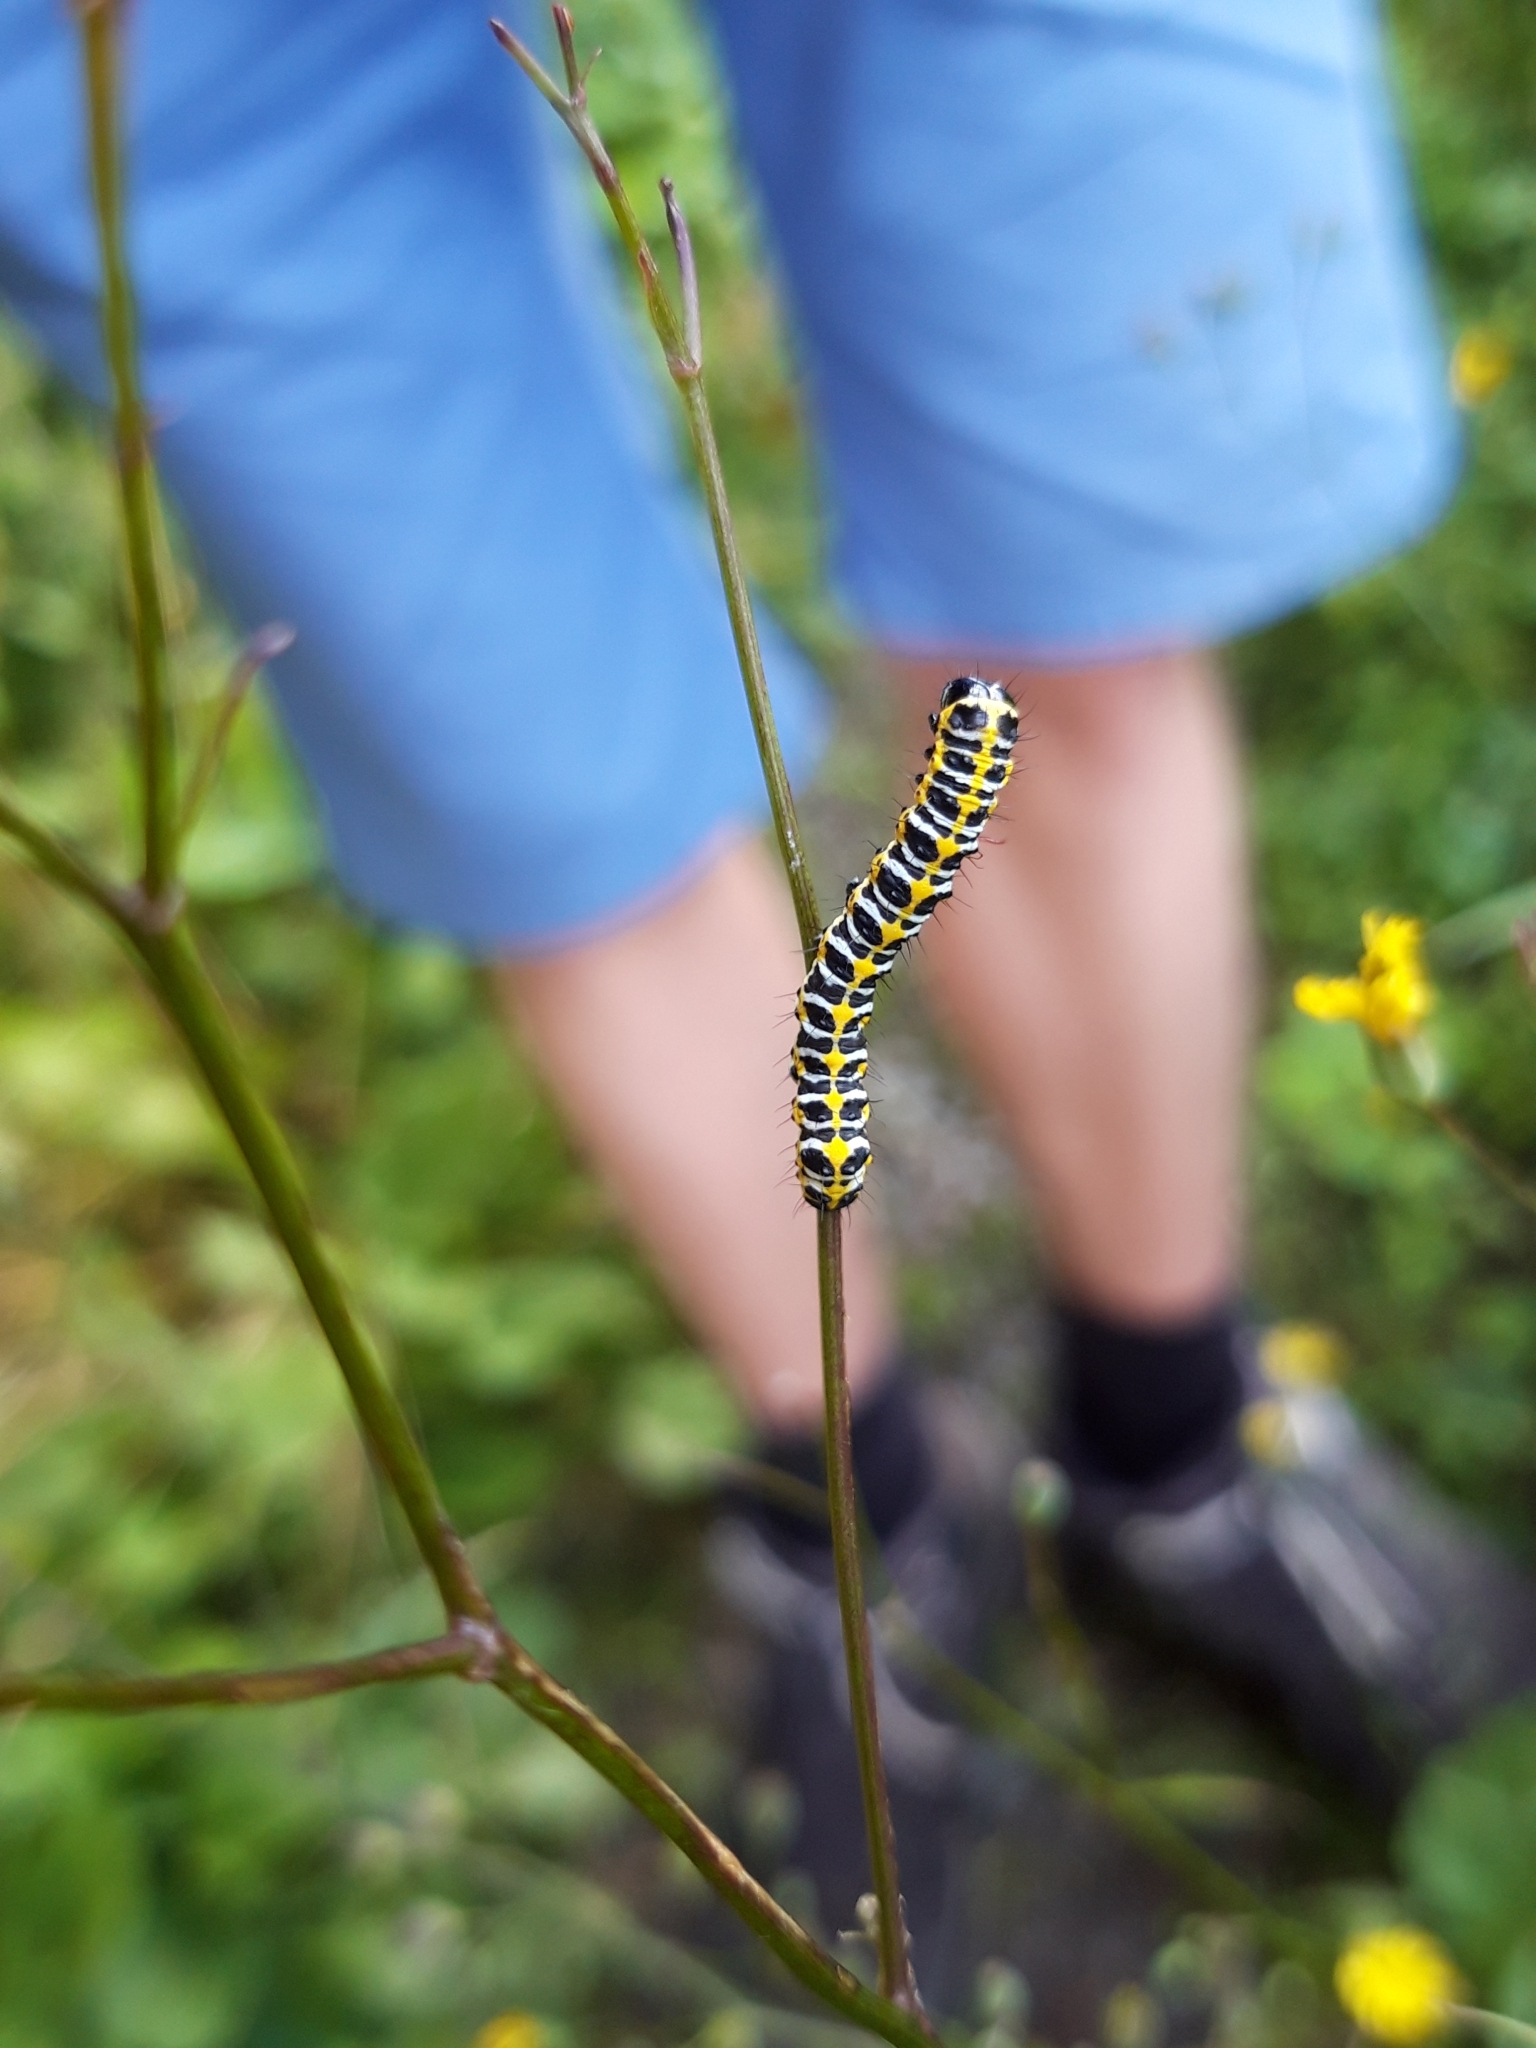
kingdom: Animalia
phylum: Arthropoda
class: Insecta
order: Lepidoptera
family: Noctuidae
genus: Cucullia
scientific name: Cucullia lactucae
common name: Lettuce shark
